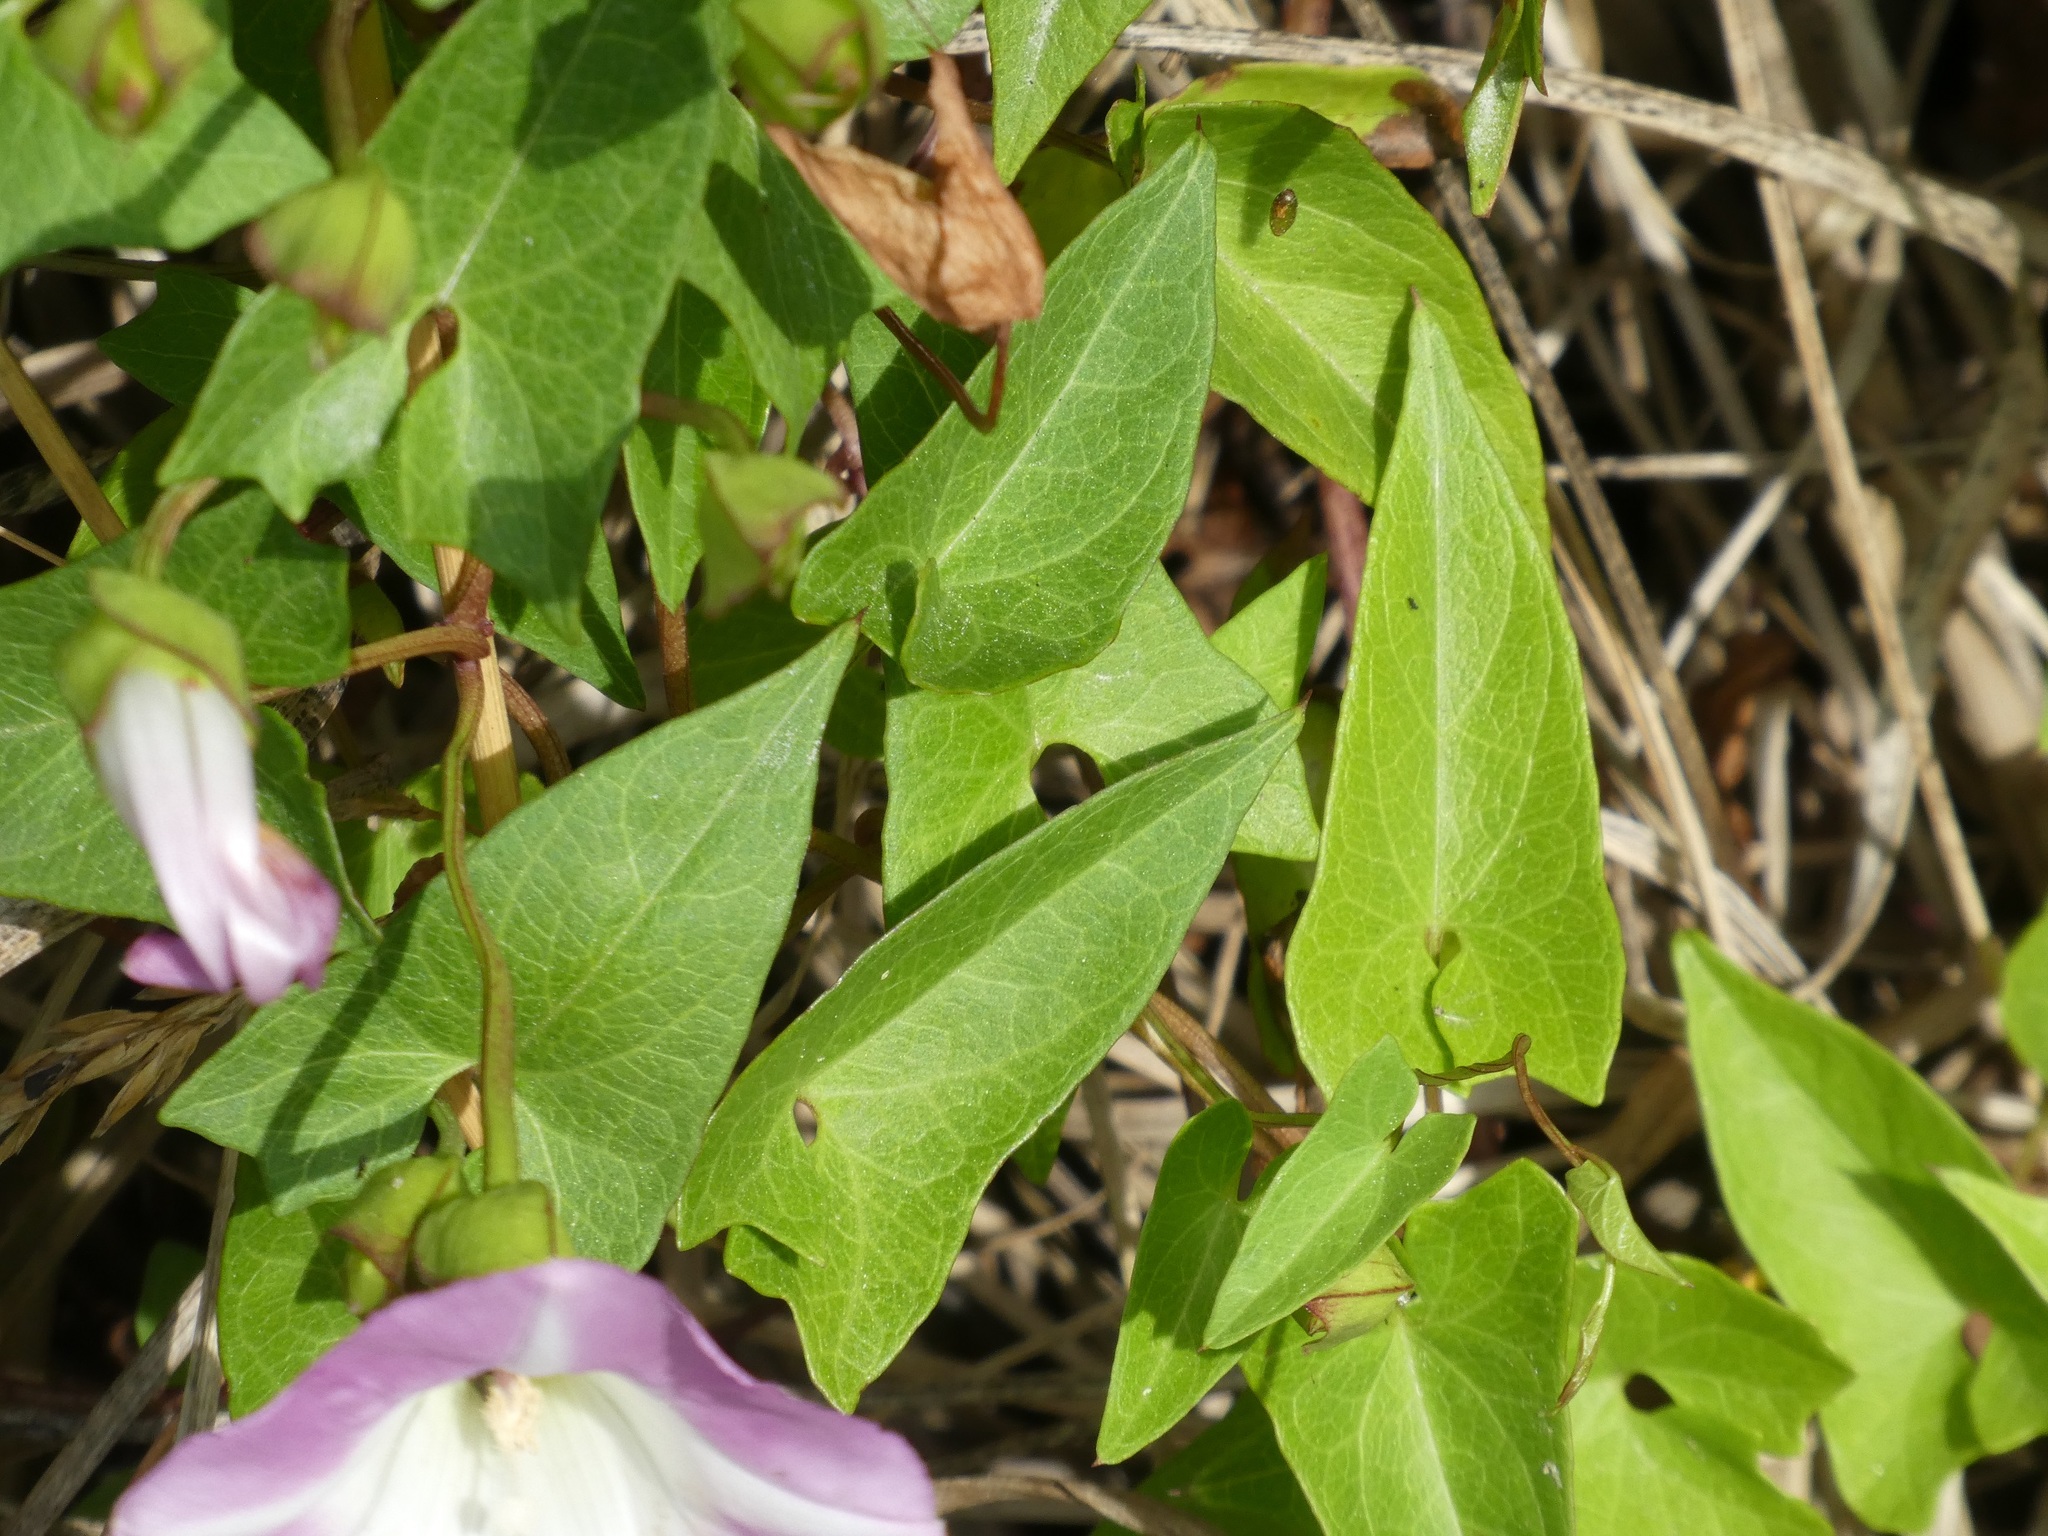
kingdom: Plantae
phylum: Tracheophyta
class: Magnoliopsida
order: Solanales
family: Convolvulaceae
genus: Calystegia
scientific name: Calystegia sepium
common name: Hedge bindweed
